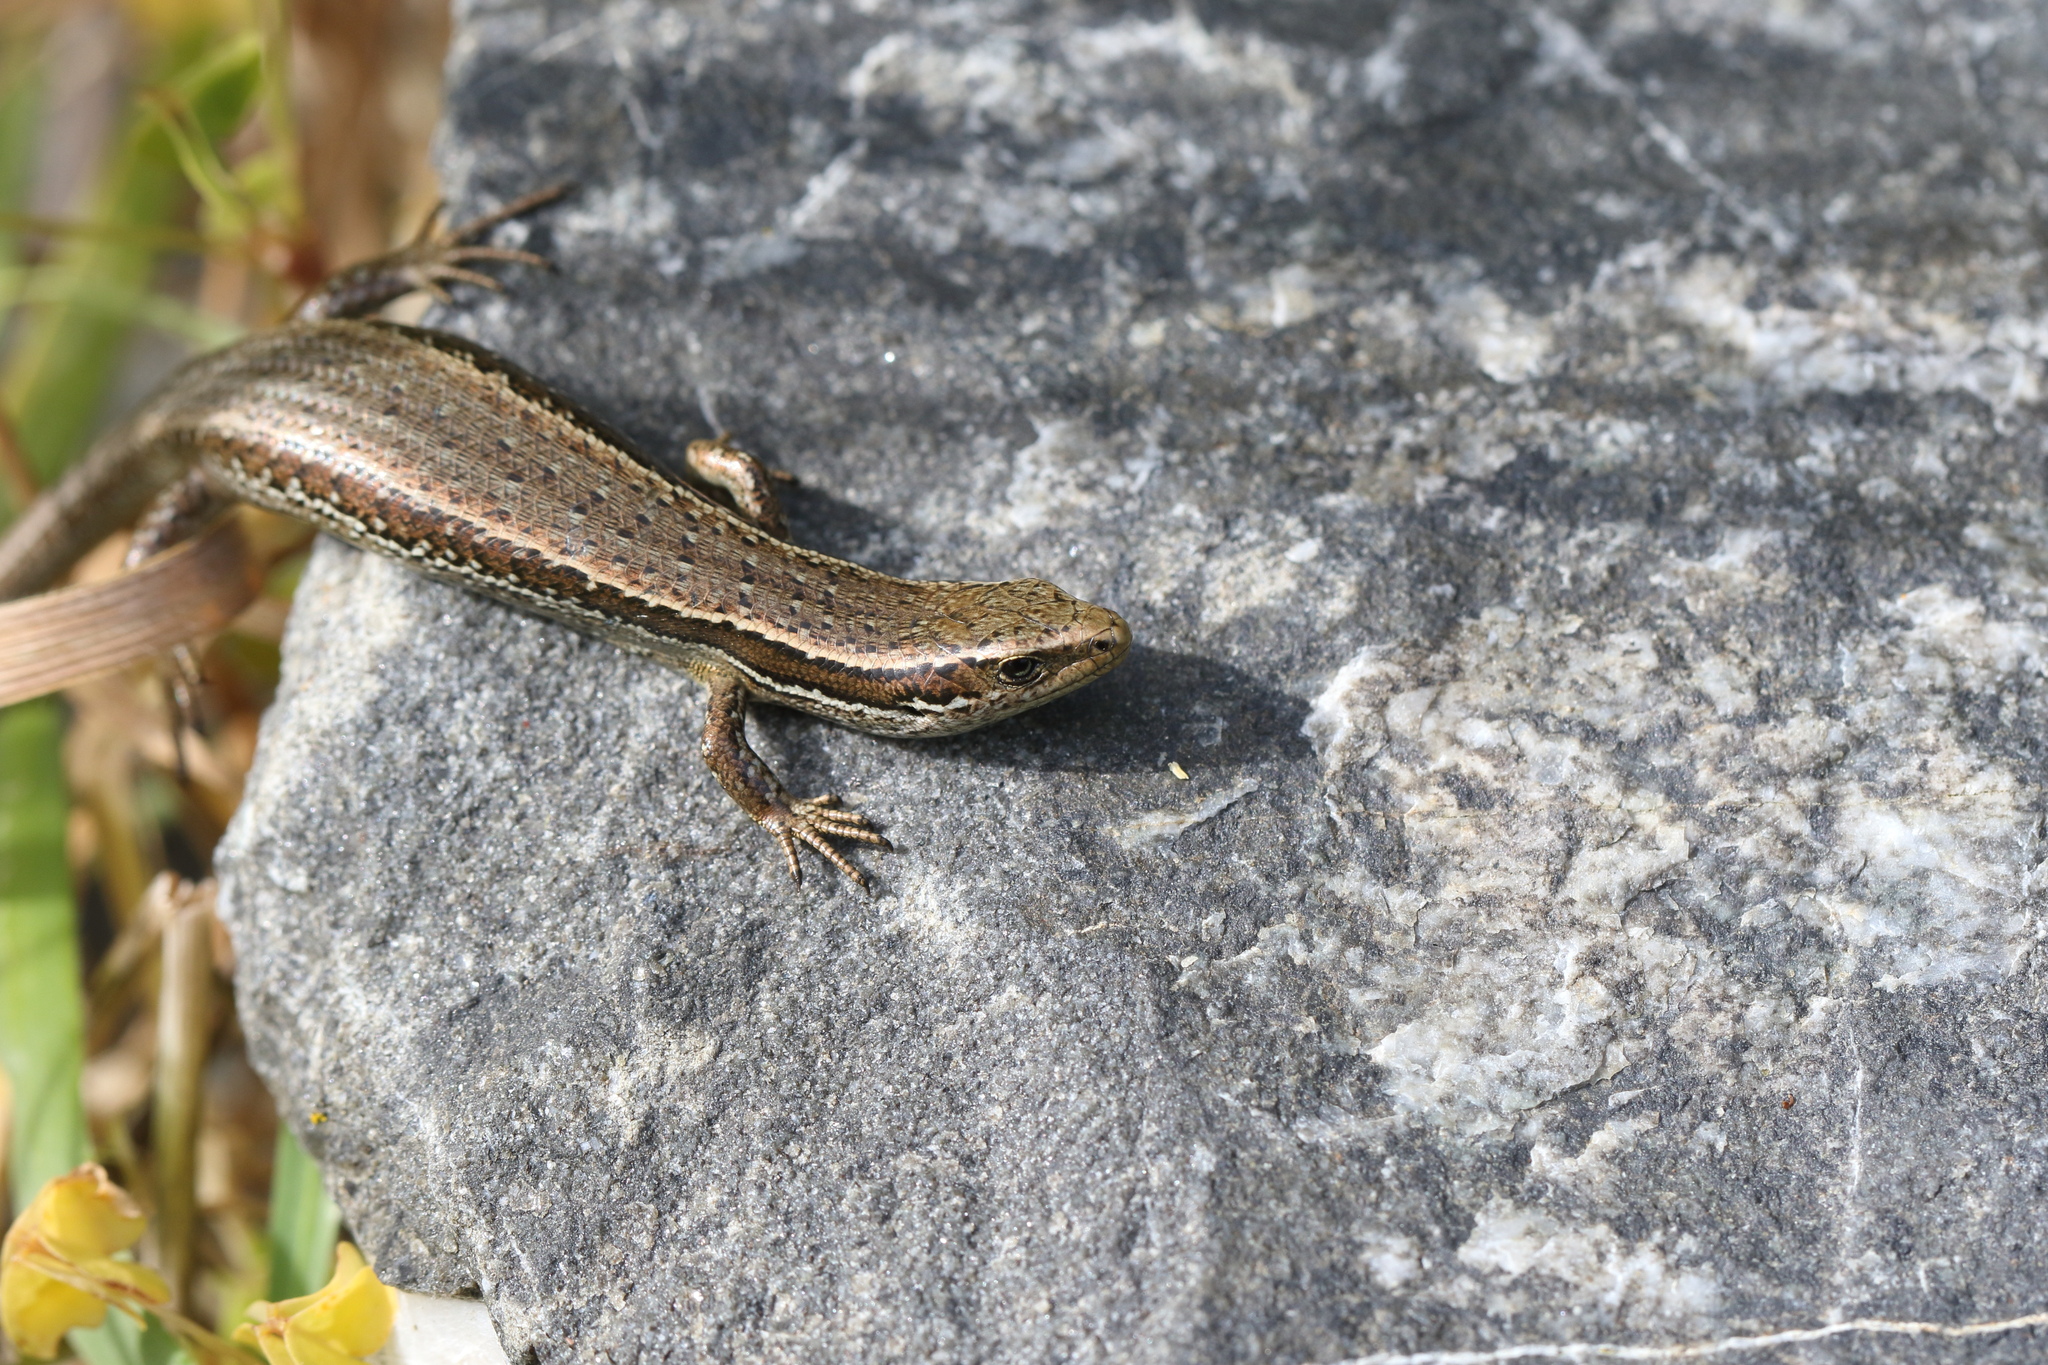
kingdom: Animalia
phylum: Chordata
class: Squamata
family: Scincidae
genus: Oligosoma
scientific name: Oligosoma polychroma
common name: Common new zealand skink
